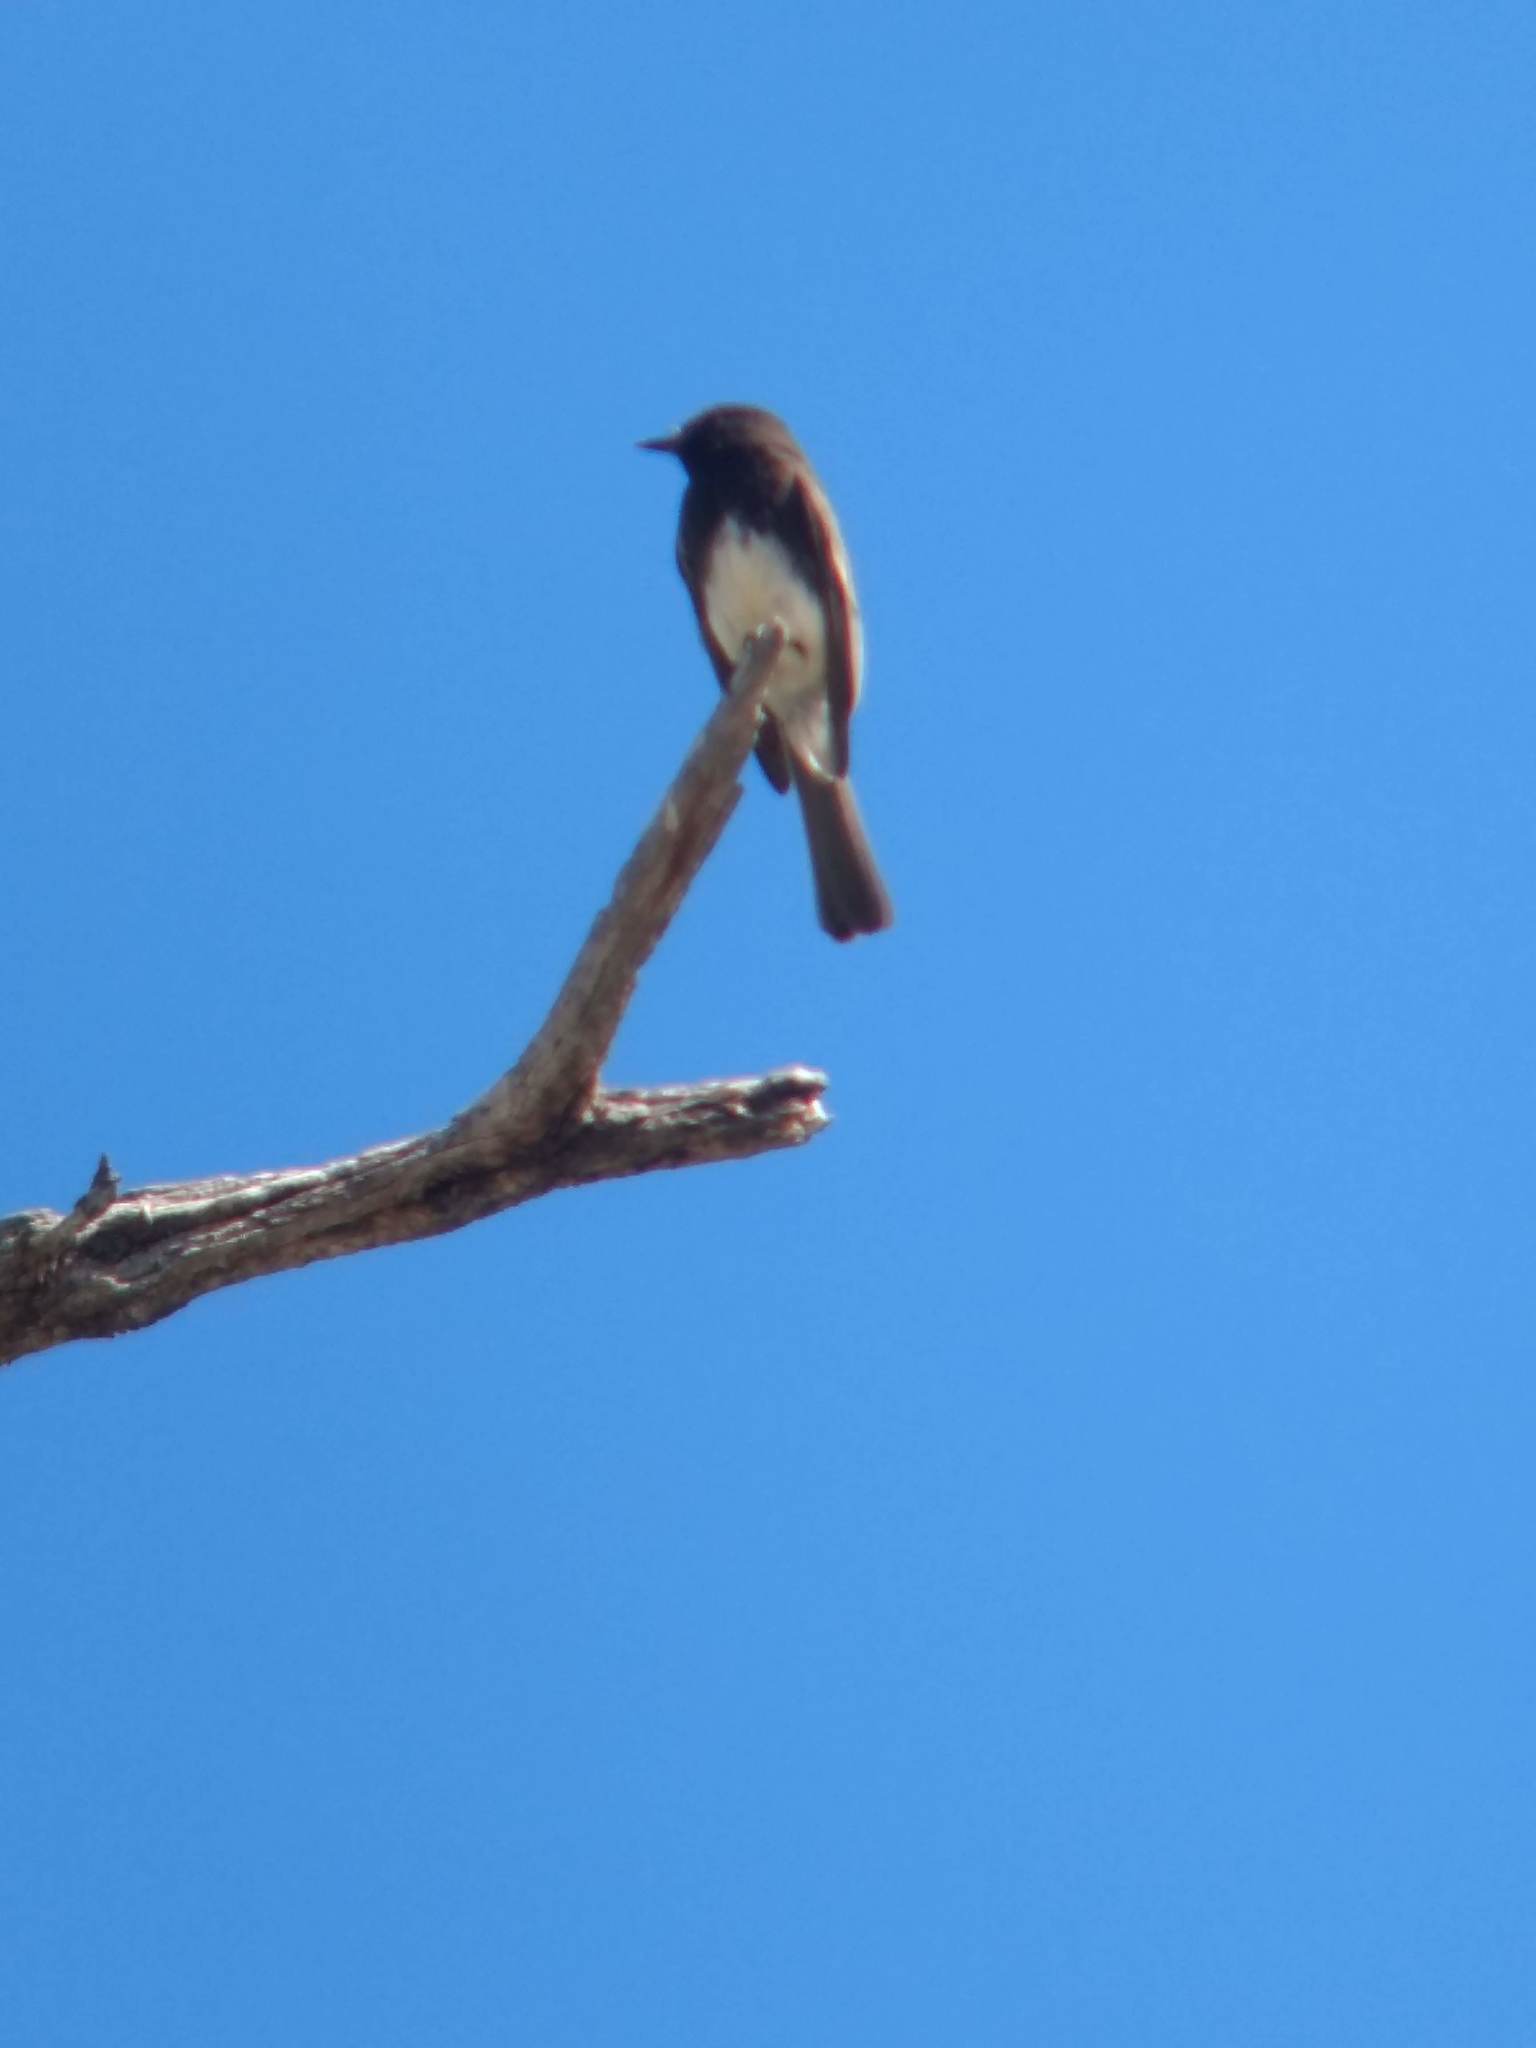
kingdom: Animalia
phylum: Chordata
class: Aves
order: Passeriformes
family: Tyrannidae
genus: Sayornis
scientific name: Sayornis nigricans
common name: Black phoebe
